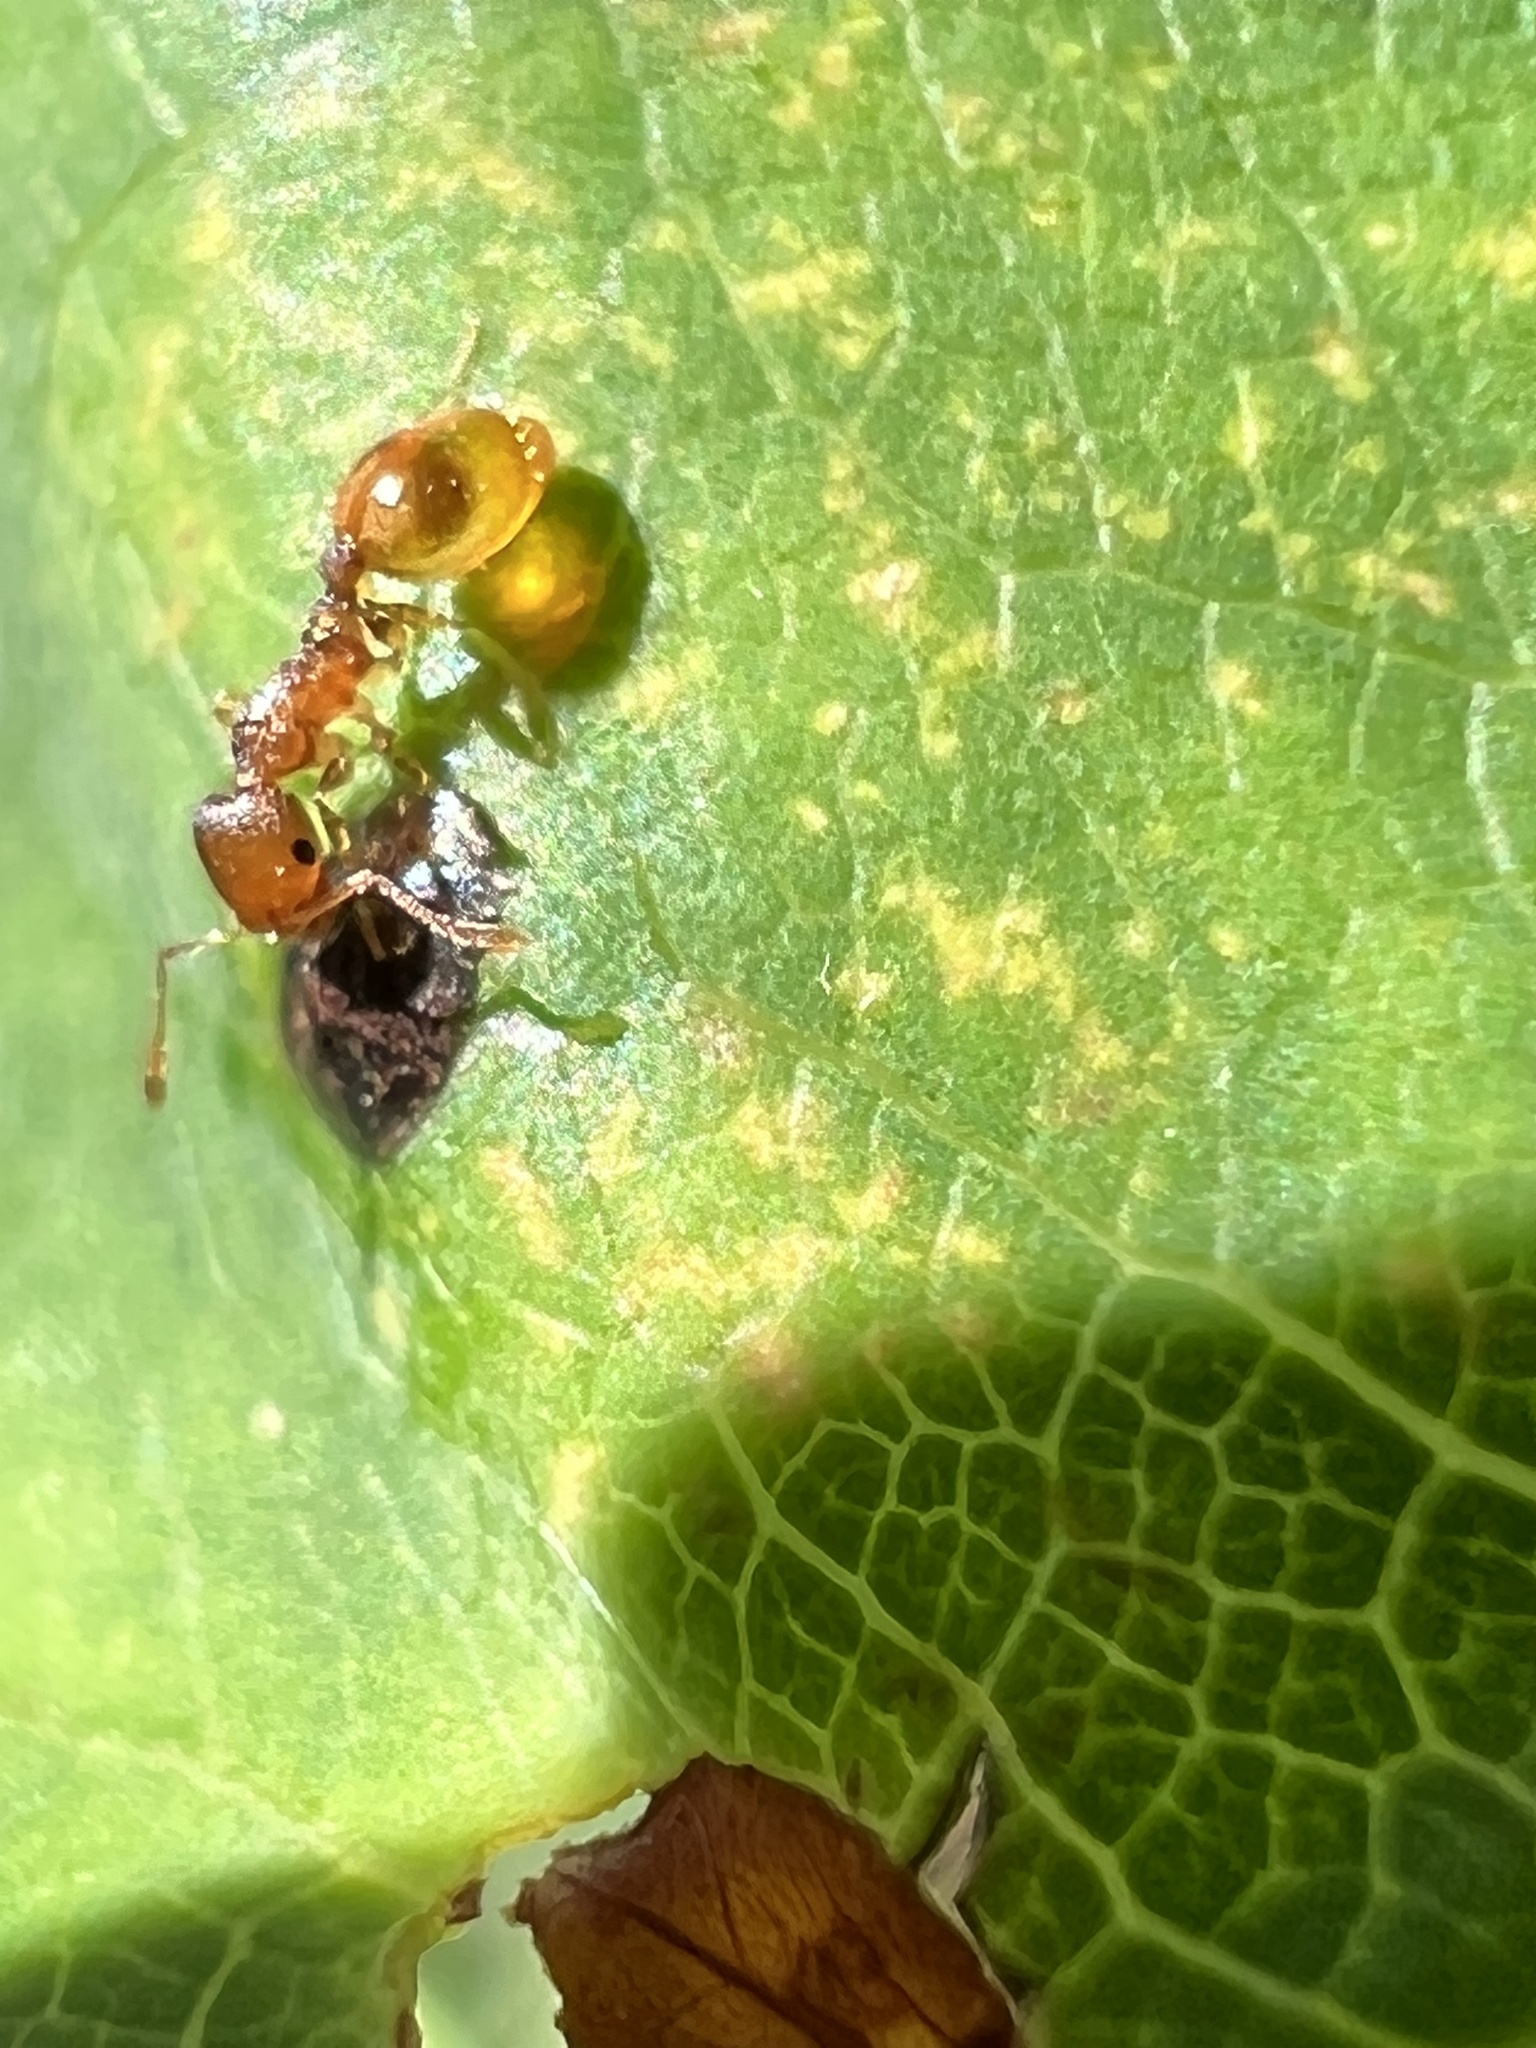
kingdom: Animalia
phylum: Arthropoda
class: Insecta
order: Hymenoptera
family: Formicidae
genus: Temnothorax
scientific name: Temnothorax curvispinosus
